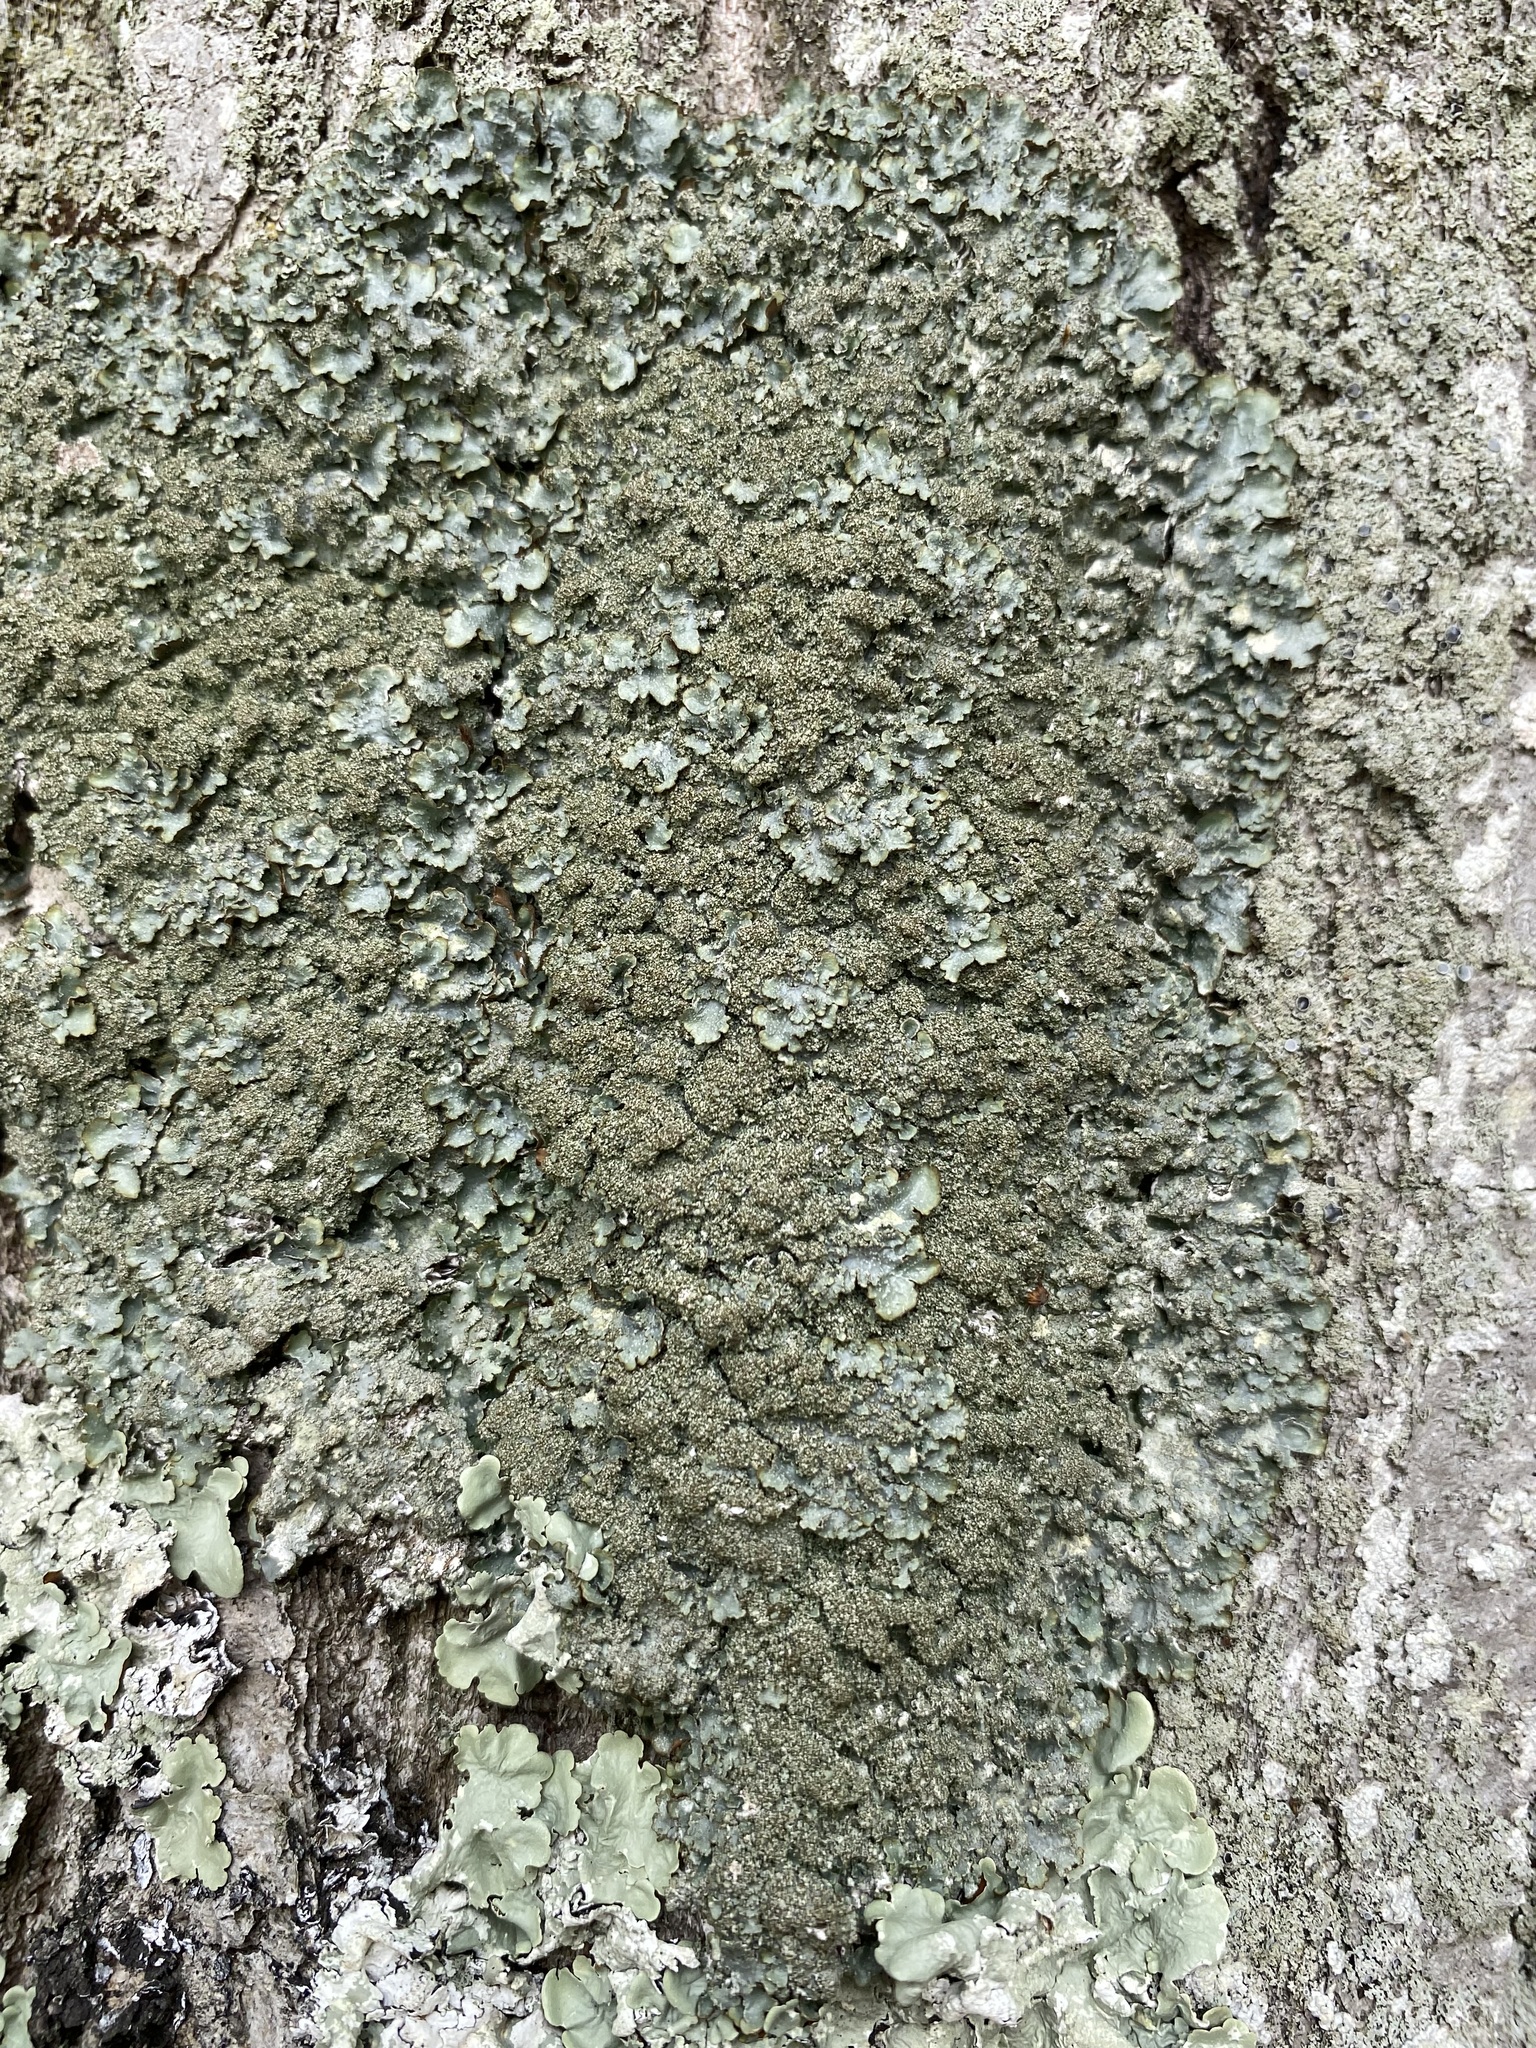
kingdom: Fungi
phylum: Ascomycota
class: Lecanoromycetes
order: Lecanorales
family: Parmeliaceae
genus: Punctelia
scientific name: Punctelia rudecta
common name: Rough speckled shield lichen
